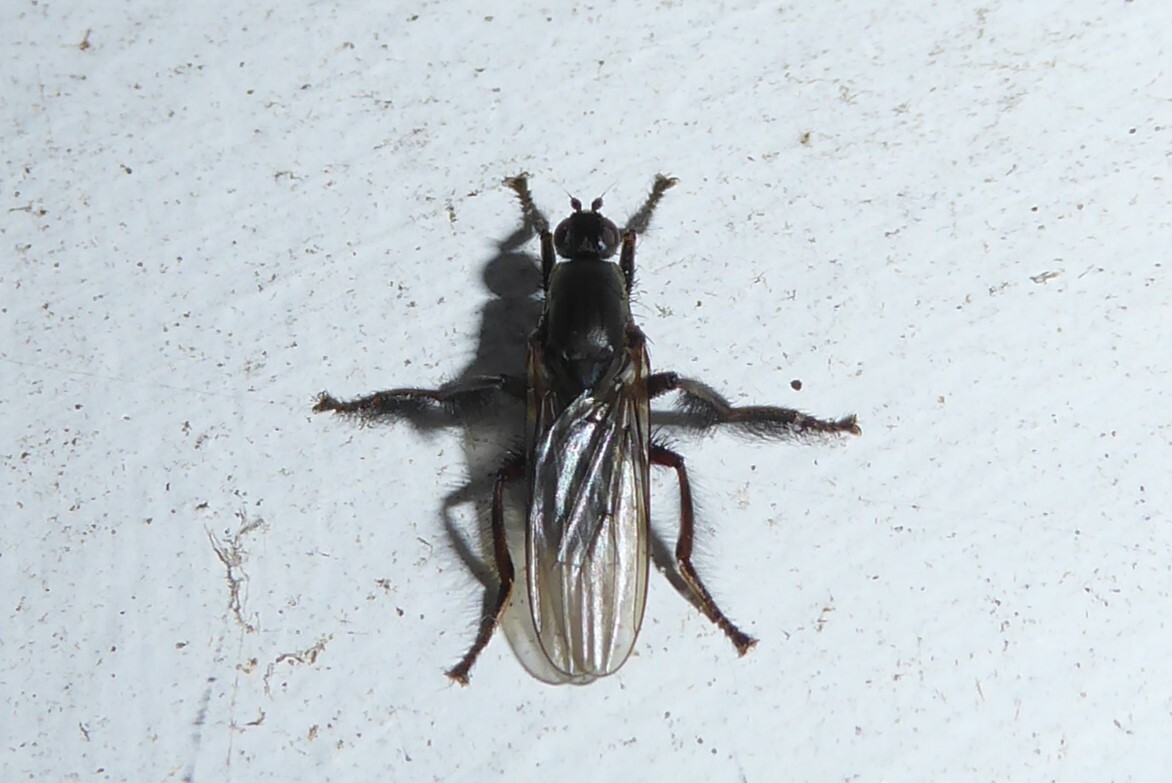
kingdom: Animalia
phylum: Arthropoda
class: Insecta
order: Diptera
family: Coelopidae
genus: Chaetocoelopa
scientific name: Chaetocoelopa littoralis
